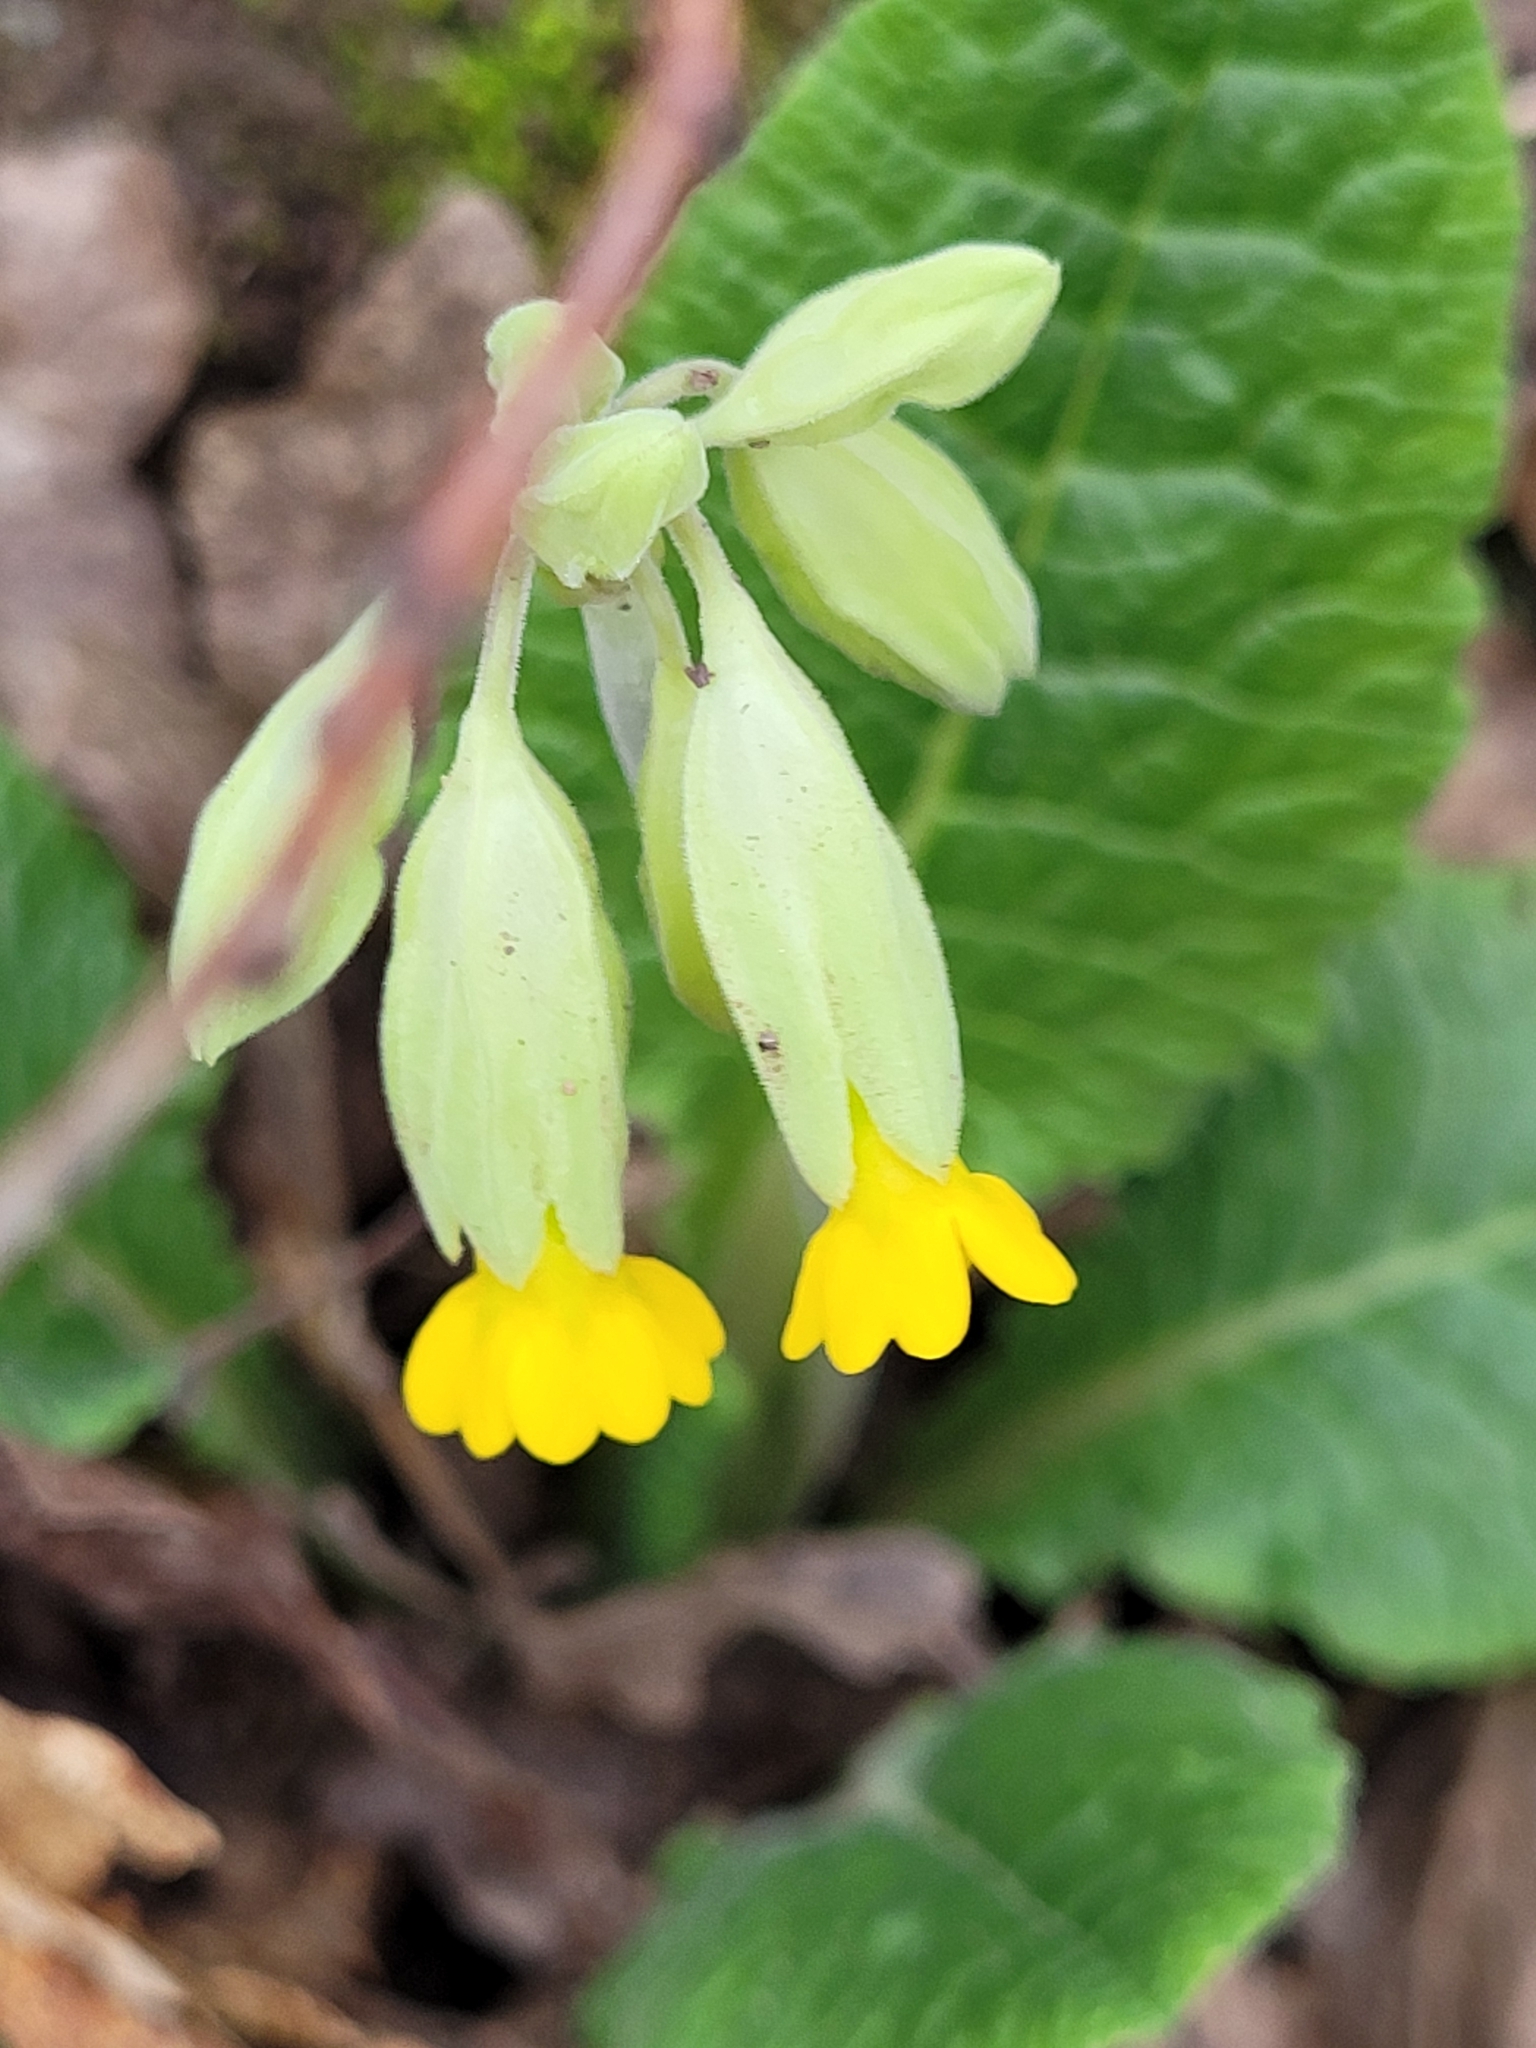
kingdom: Plantae
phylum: Tracheophyta
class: Magnoliopsida
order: Ericales
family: Primulaceae
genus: Primula
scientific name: Primula veris
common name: Cowslip
